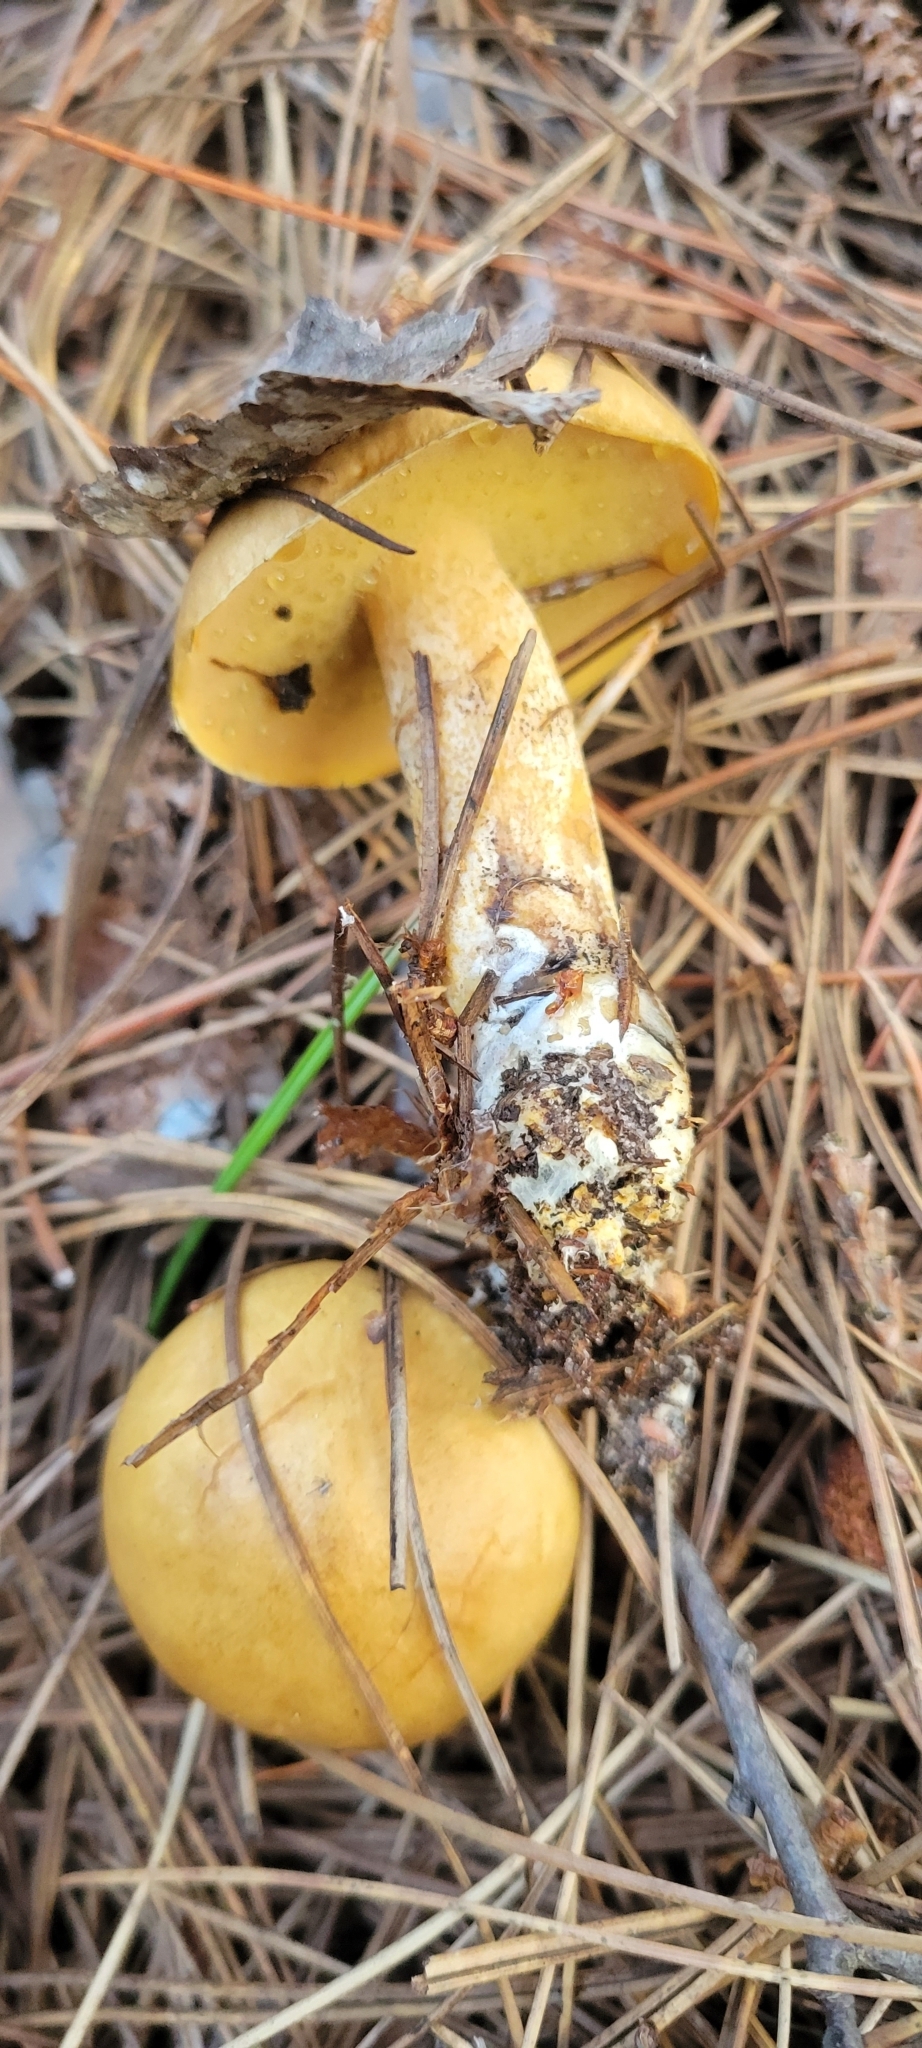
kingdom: Fungi
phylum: Basidiomycota
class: Agaricomycetes
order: Boletales
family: Suillaceae
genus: Suillus
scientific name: Suillus subaureus
